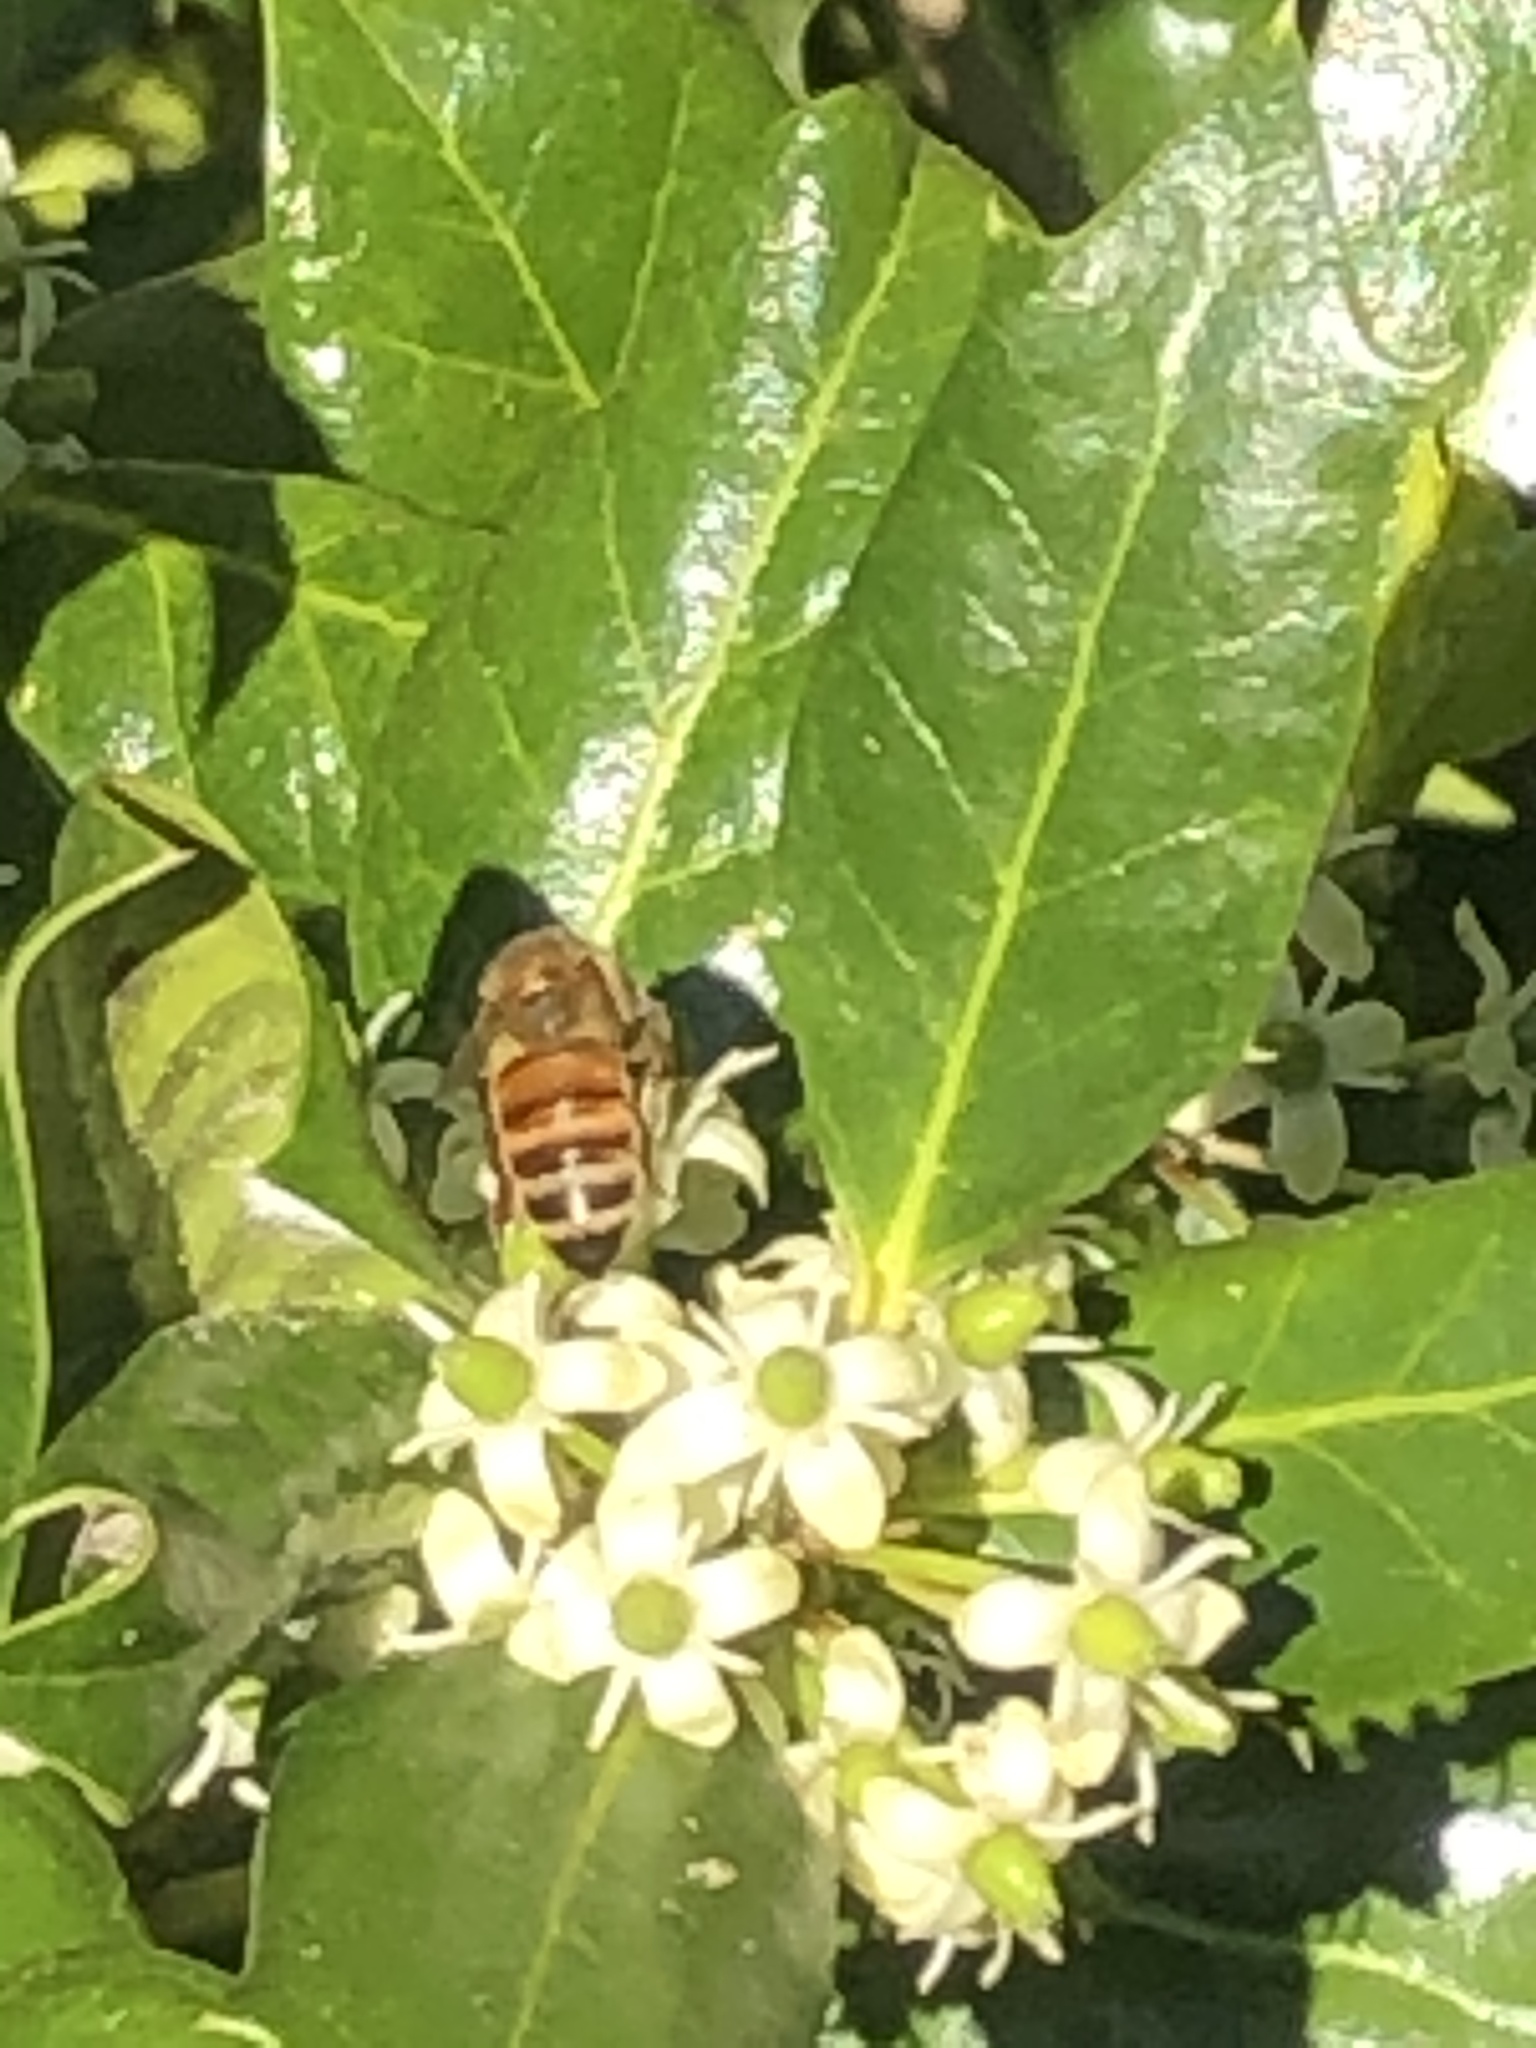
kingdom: Animalia
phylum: Arthropoda
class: Insecta
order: Hymenoptera
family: Apidae
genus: Apis
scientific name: Apis mellifera
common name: Honey bee
